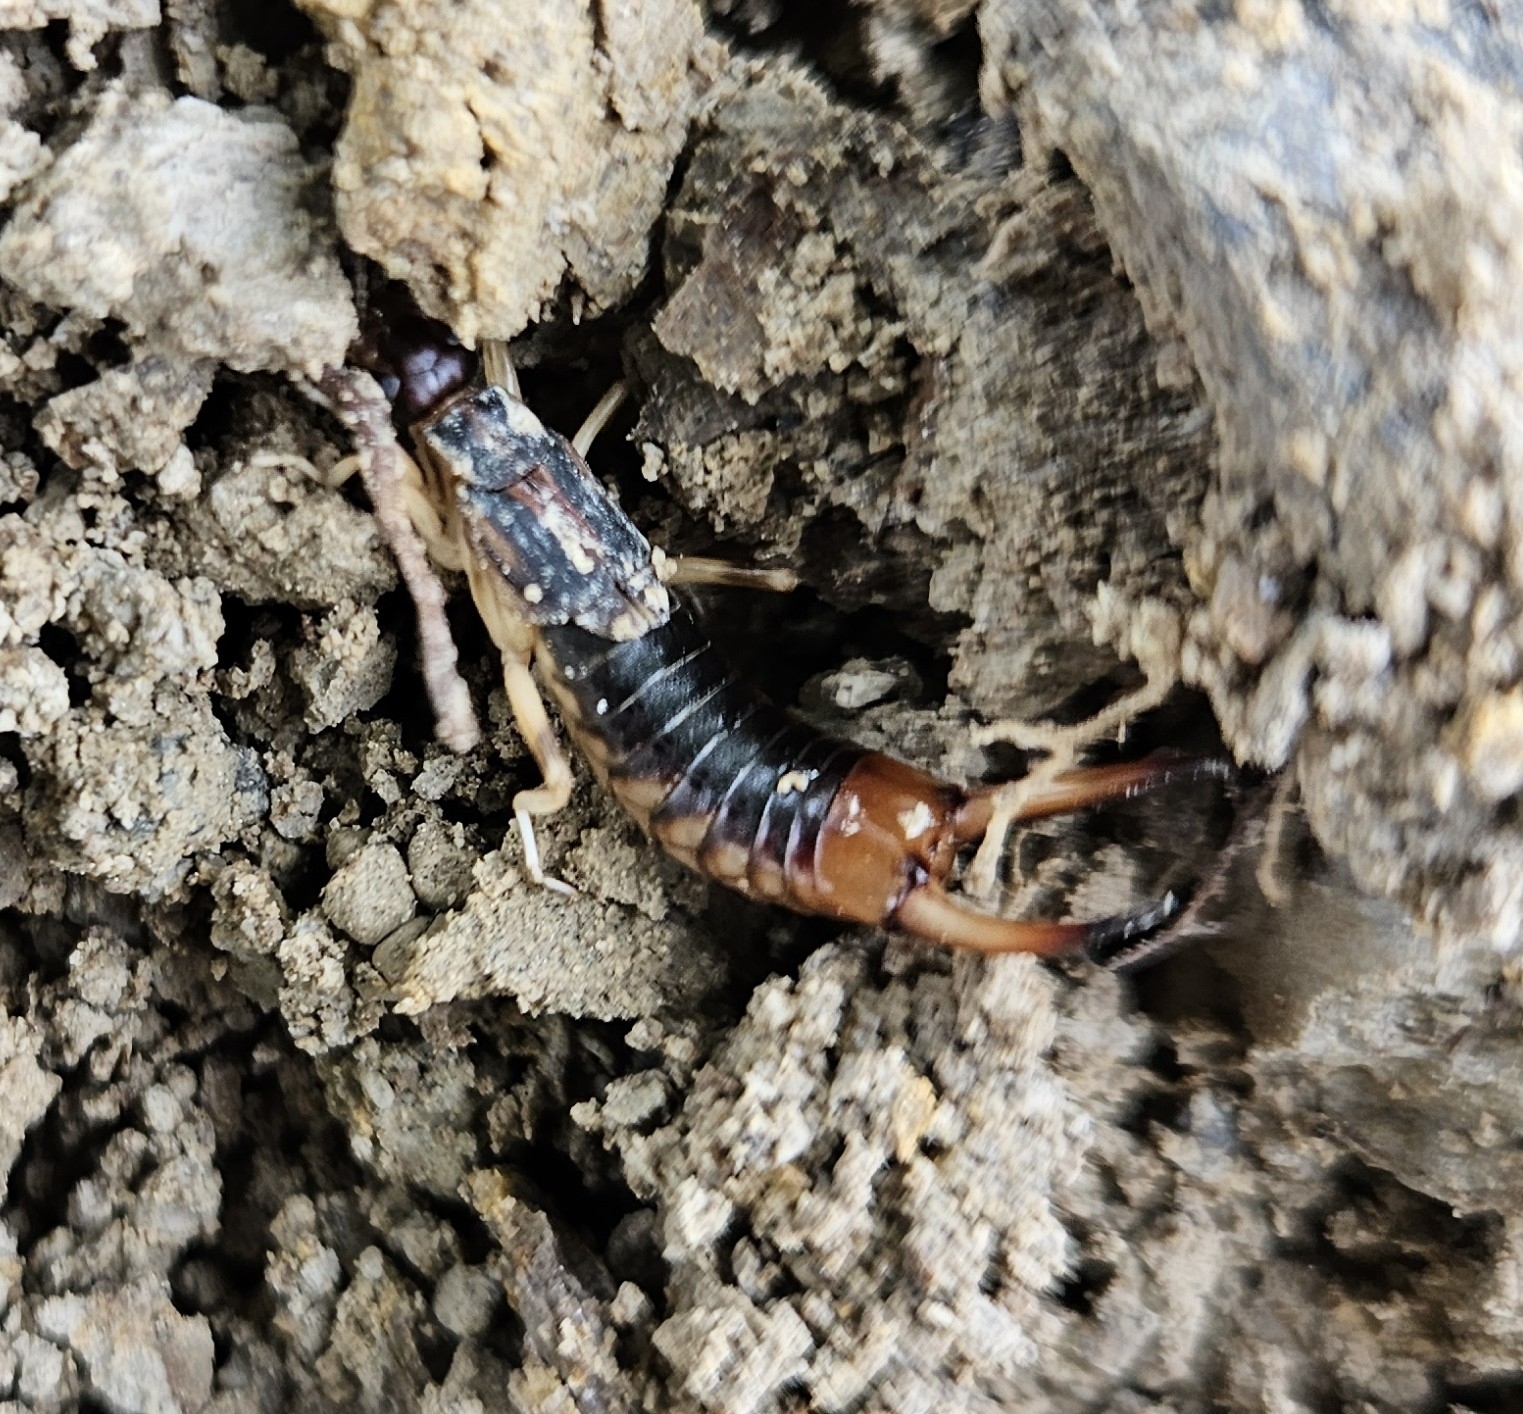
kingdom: Animalia
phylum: Arthropoda
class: Insecta
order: Dermaptera
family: Labiduridae
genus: Labidura
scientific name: Labidura riparia
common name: Striped earwig
